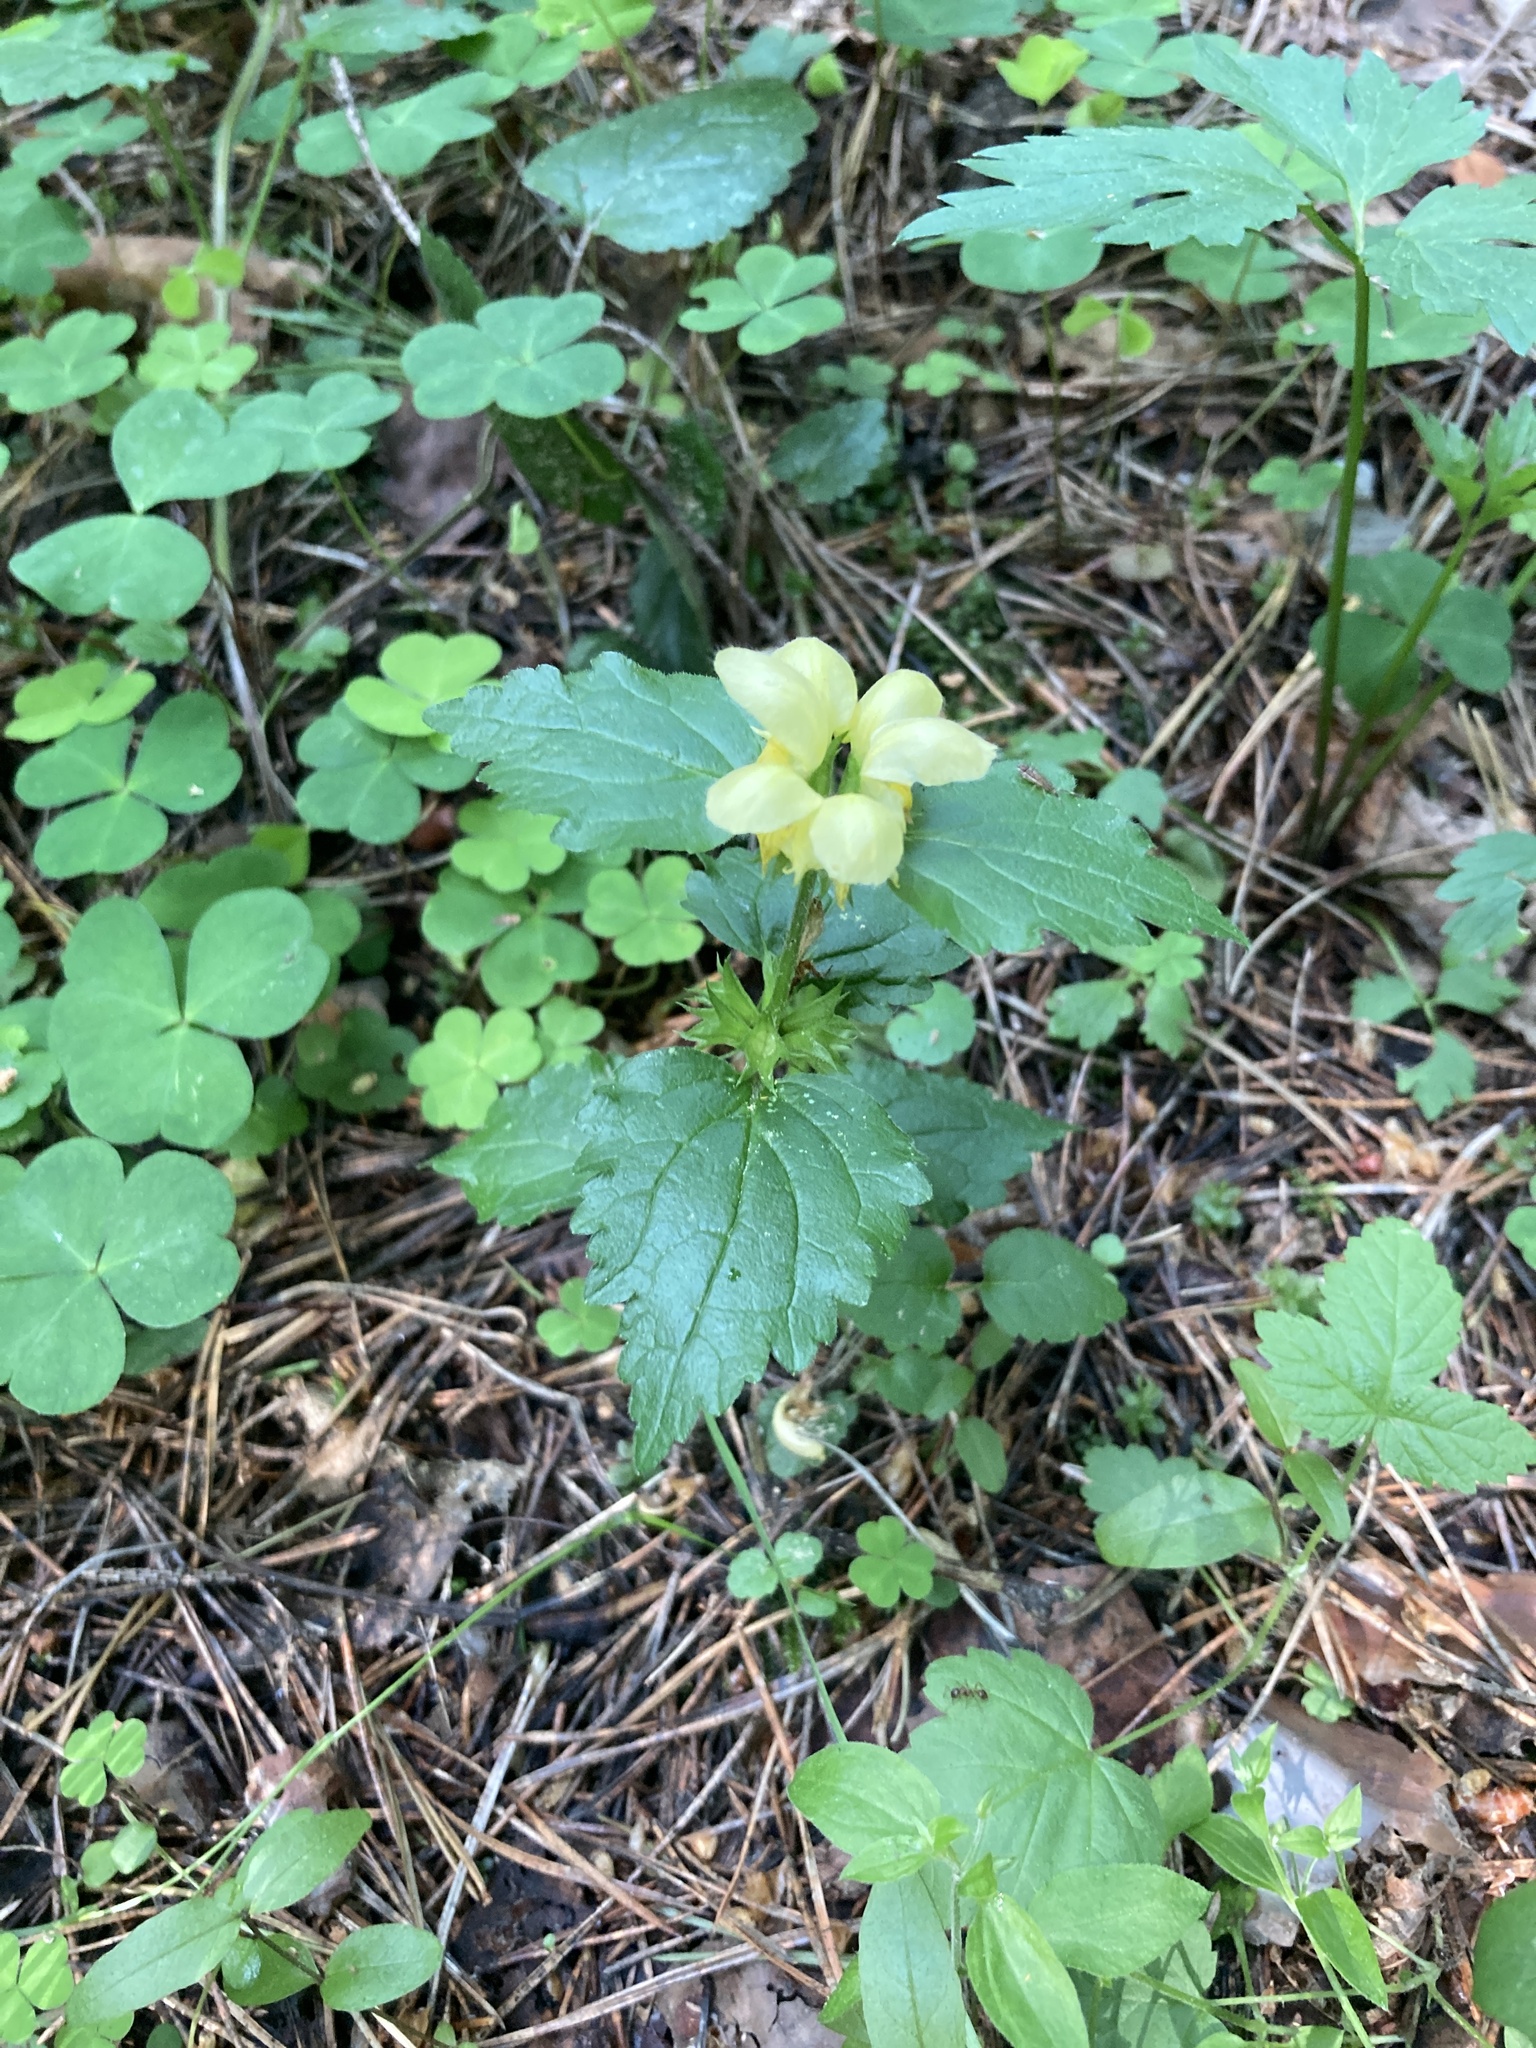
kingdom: Plantae
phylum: Tracheophyta
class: Magnoliopsida
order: Lamiales
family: Lamiaceae
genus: Lamium
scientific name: Lamium galeobdolon
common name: Yellow archangel
